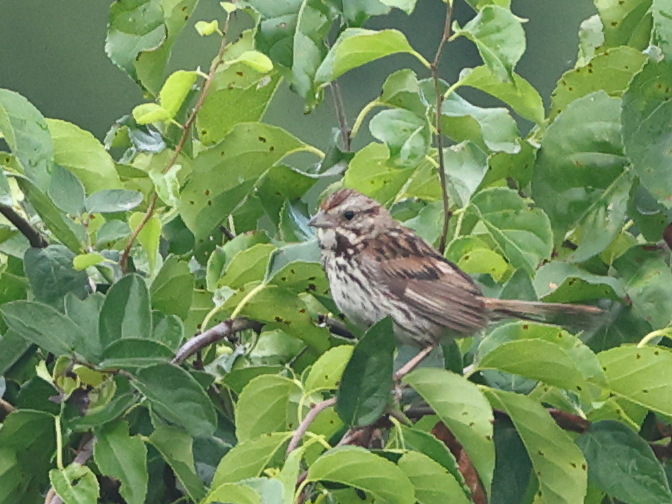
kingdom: Animalia
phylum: Chordata
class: Aves
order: Passeriformes
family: Passerellidae
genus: Melospiza
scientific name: Melospiza melodia
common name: Song sparrow
